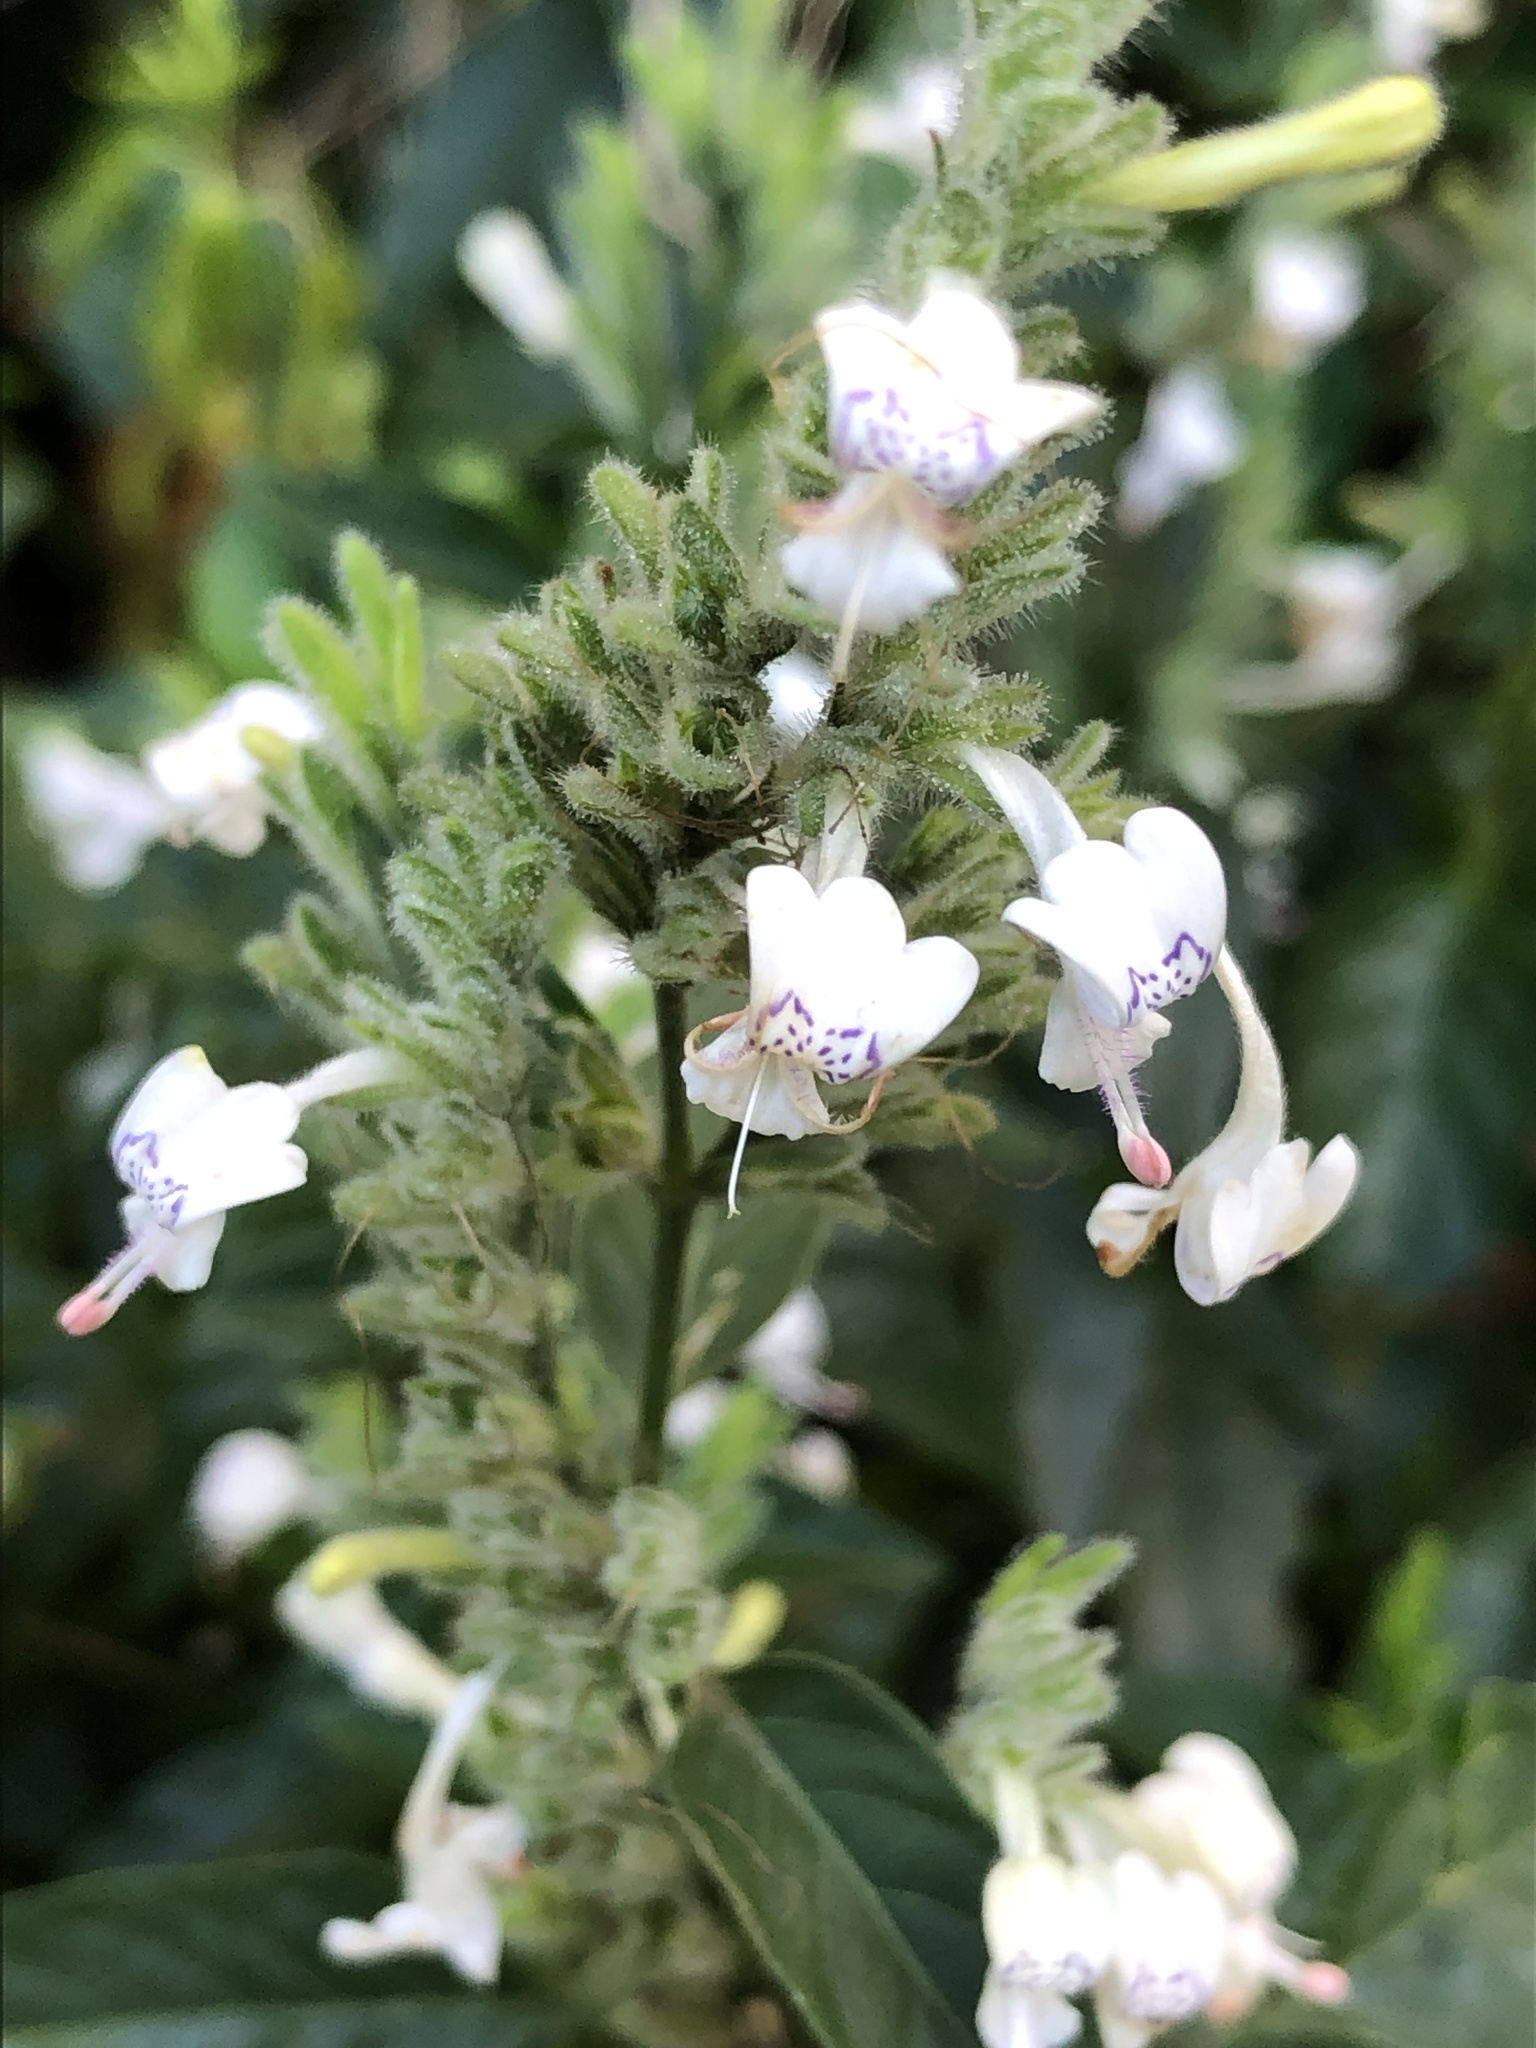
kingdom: Plantae
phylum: Tracheophyta
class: Magnoliopsida
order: Lamiales
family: Acanthaceae
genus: Hypoestes
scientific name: Hypoestes forskaolii
